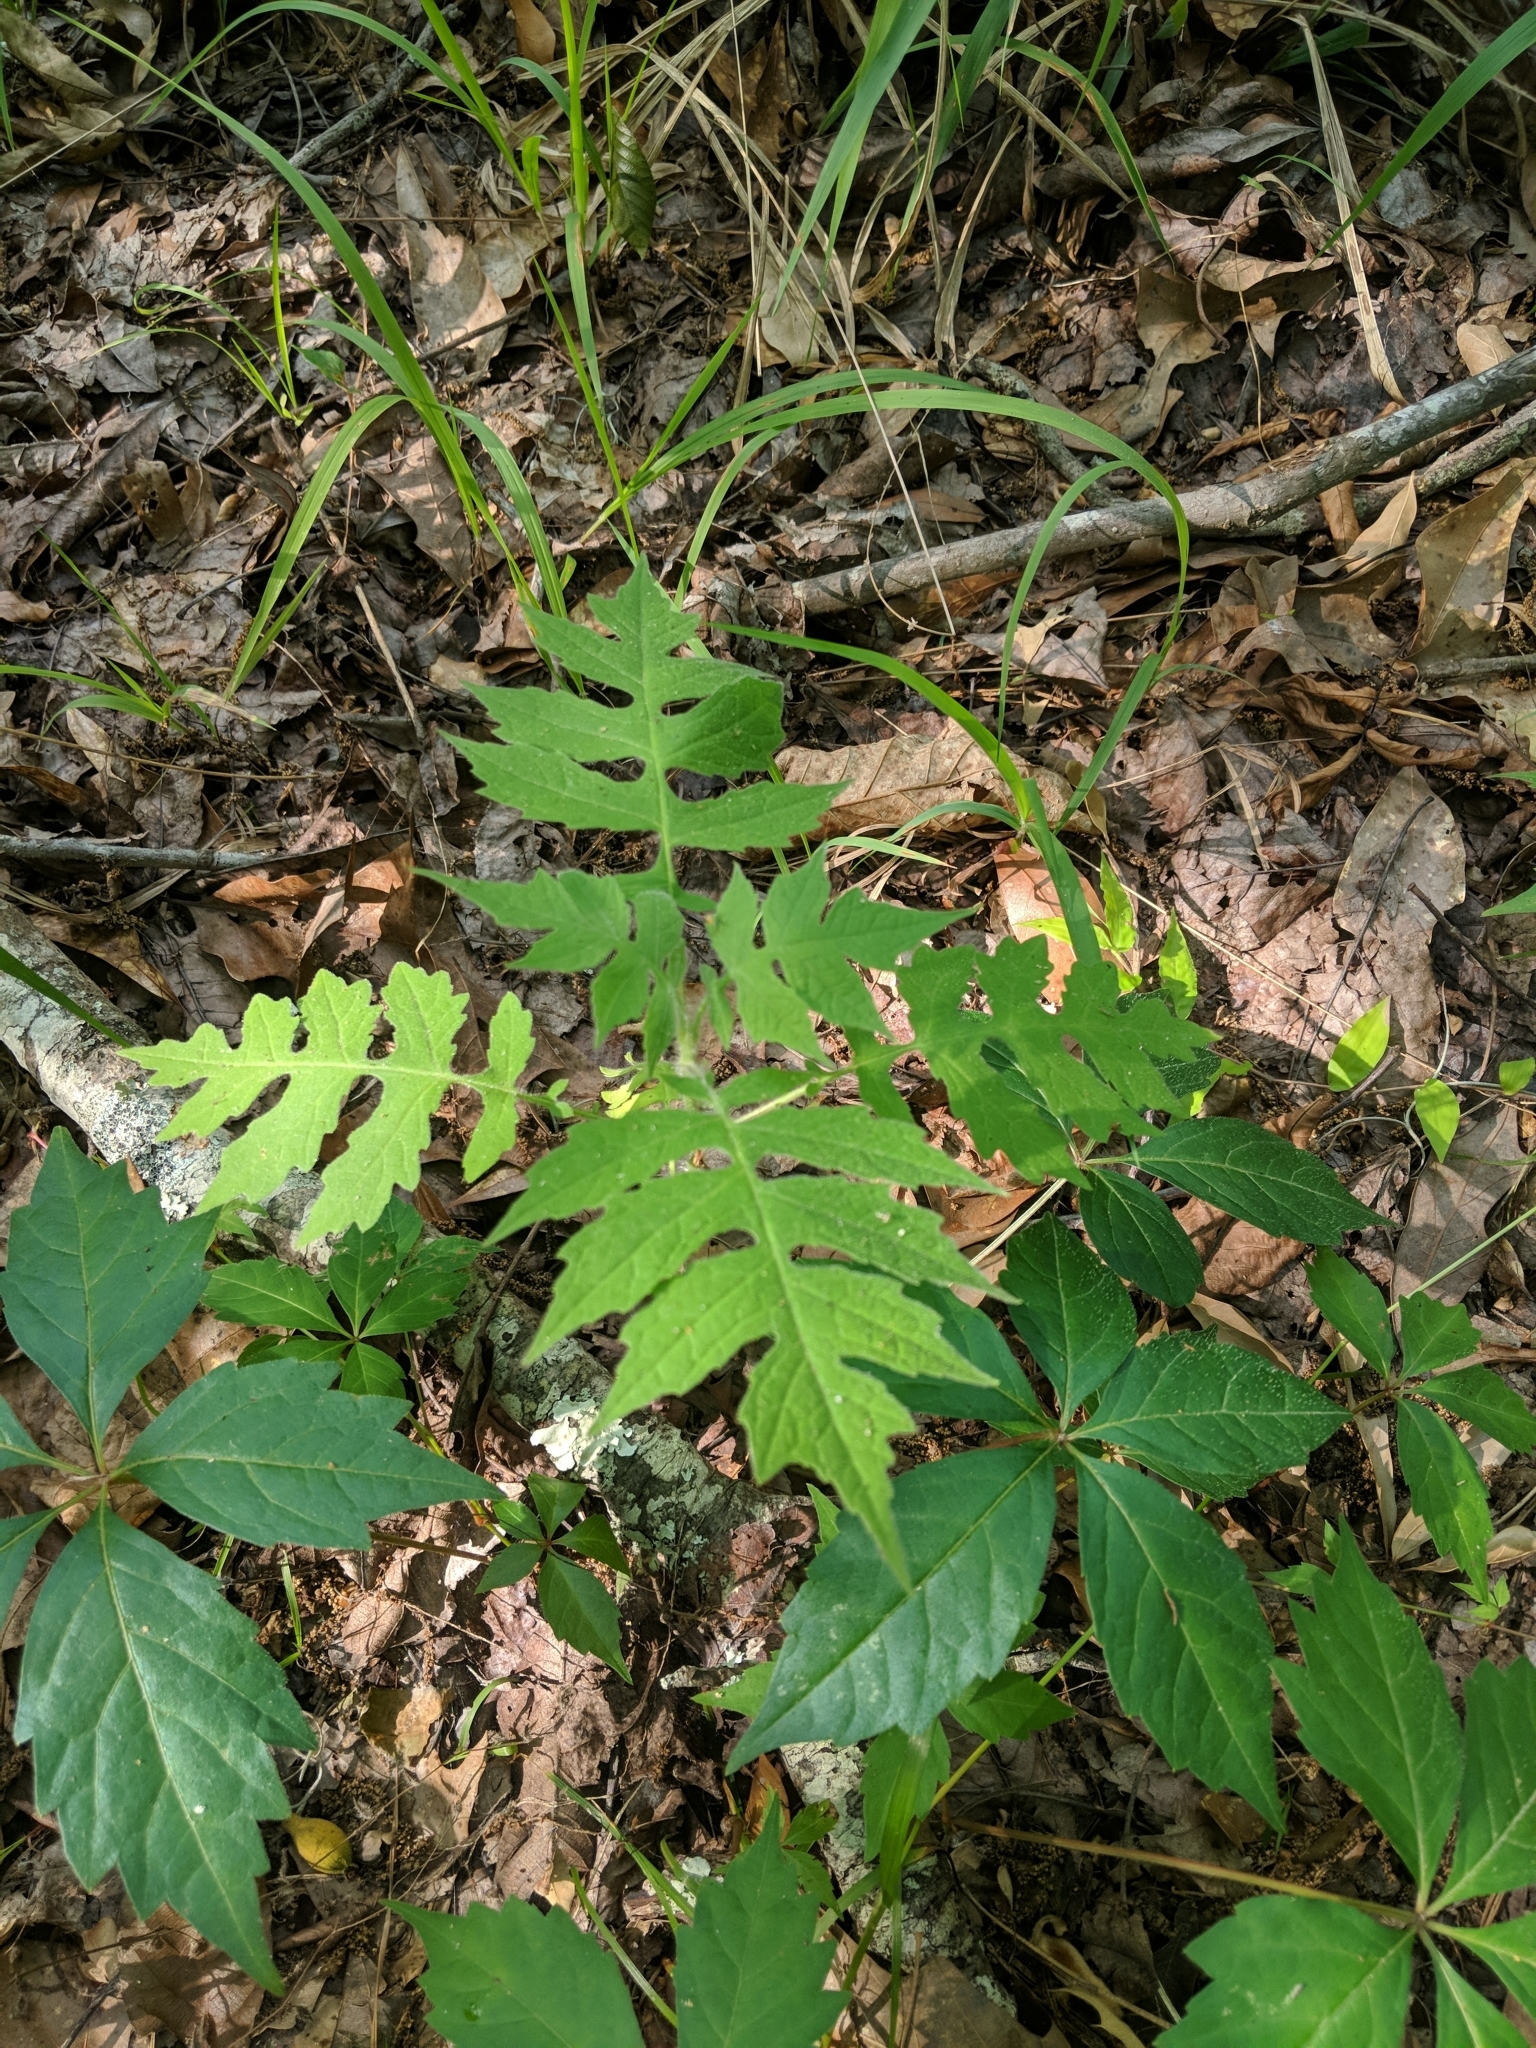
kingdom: Plantae
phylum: Tracheophyta
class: Magnoliopsida
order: Asterales
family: Asteraceae
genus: Polymnia
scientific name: Polymnia canadensis
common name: Pale-flowered leafcup
